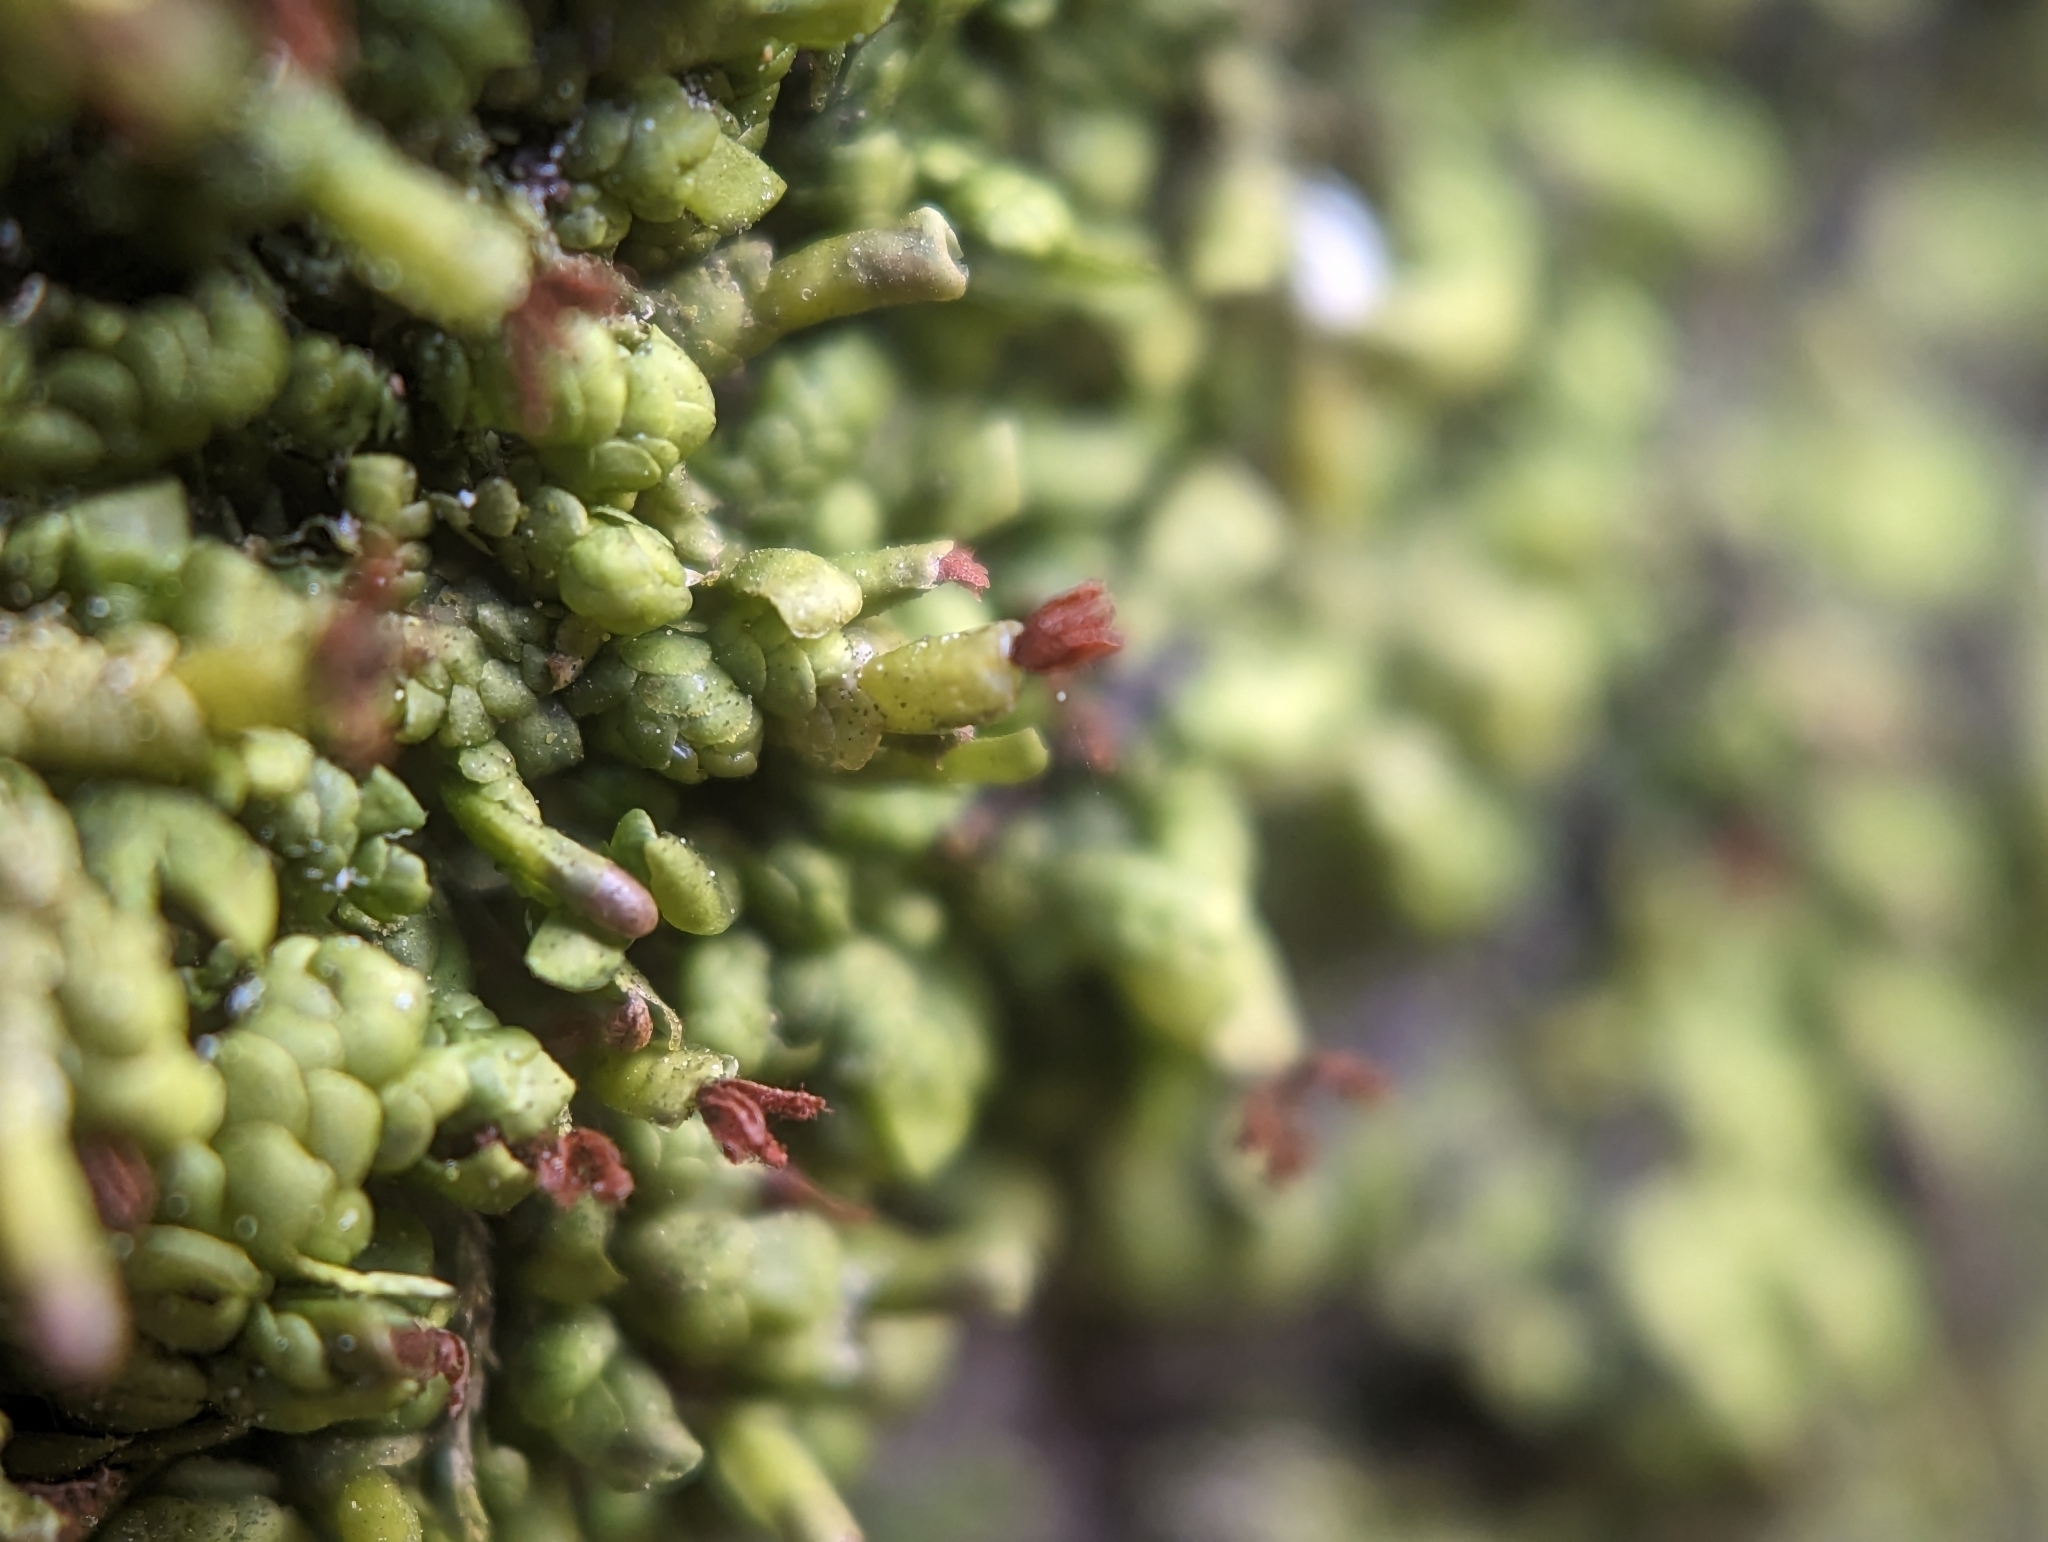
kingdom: Plantae
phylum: Marchantiophyta
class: Jungermanniopsida
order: Porellales
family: Radulaceae
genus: Radula
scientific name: Radula complanata
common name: Flat-leaved scalewort
